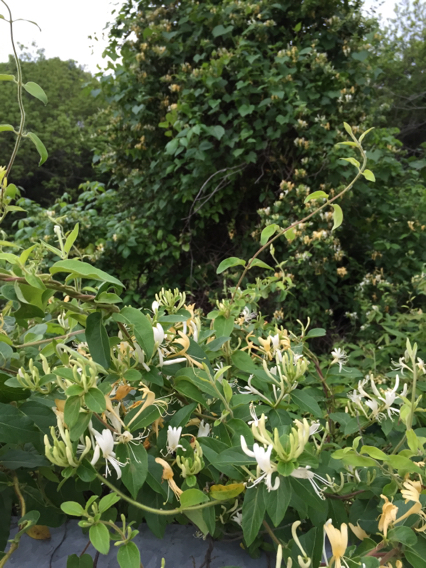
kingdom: Plantae
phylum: Tracheophyta
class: Magnoliopsida
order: Dipsacales
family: Caprifoliaceae
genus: Lonicera
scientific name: Lonicera japonica
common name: Japanese honeysuckle
